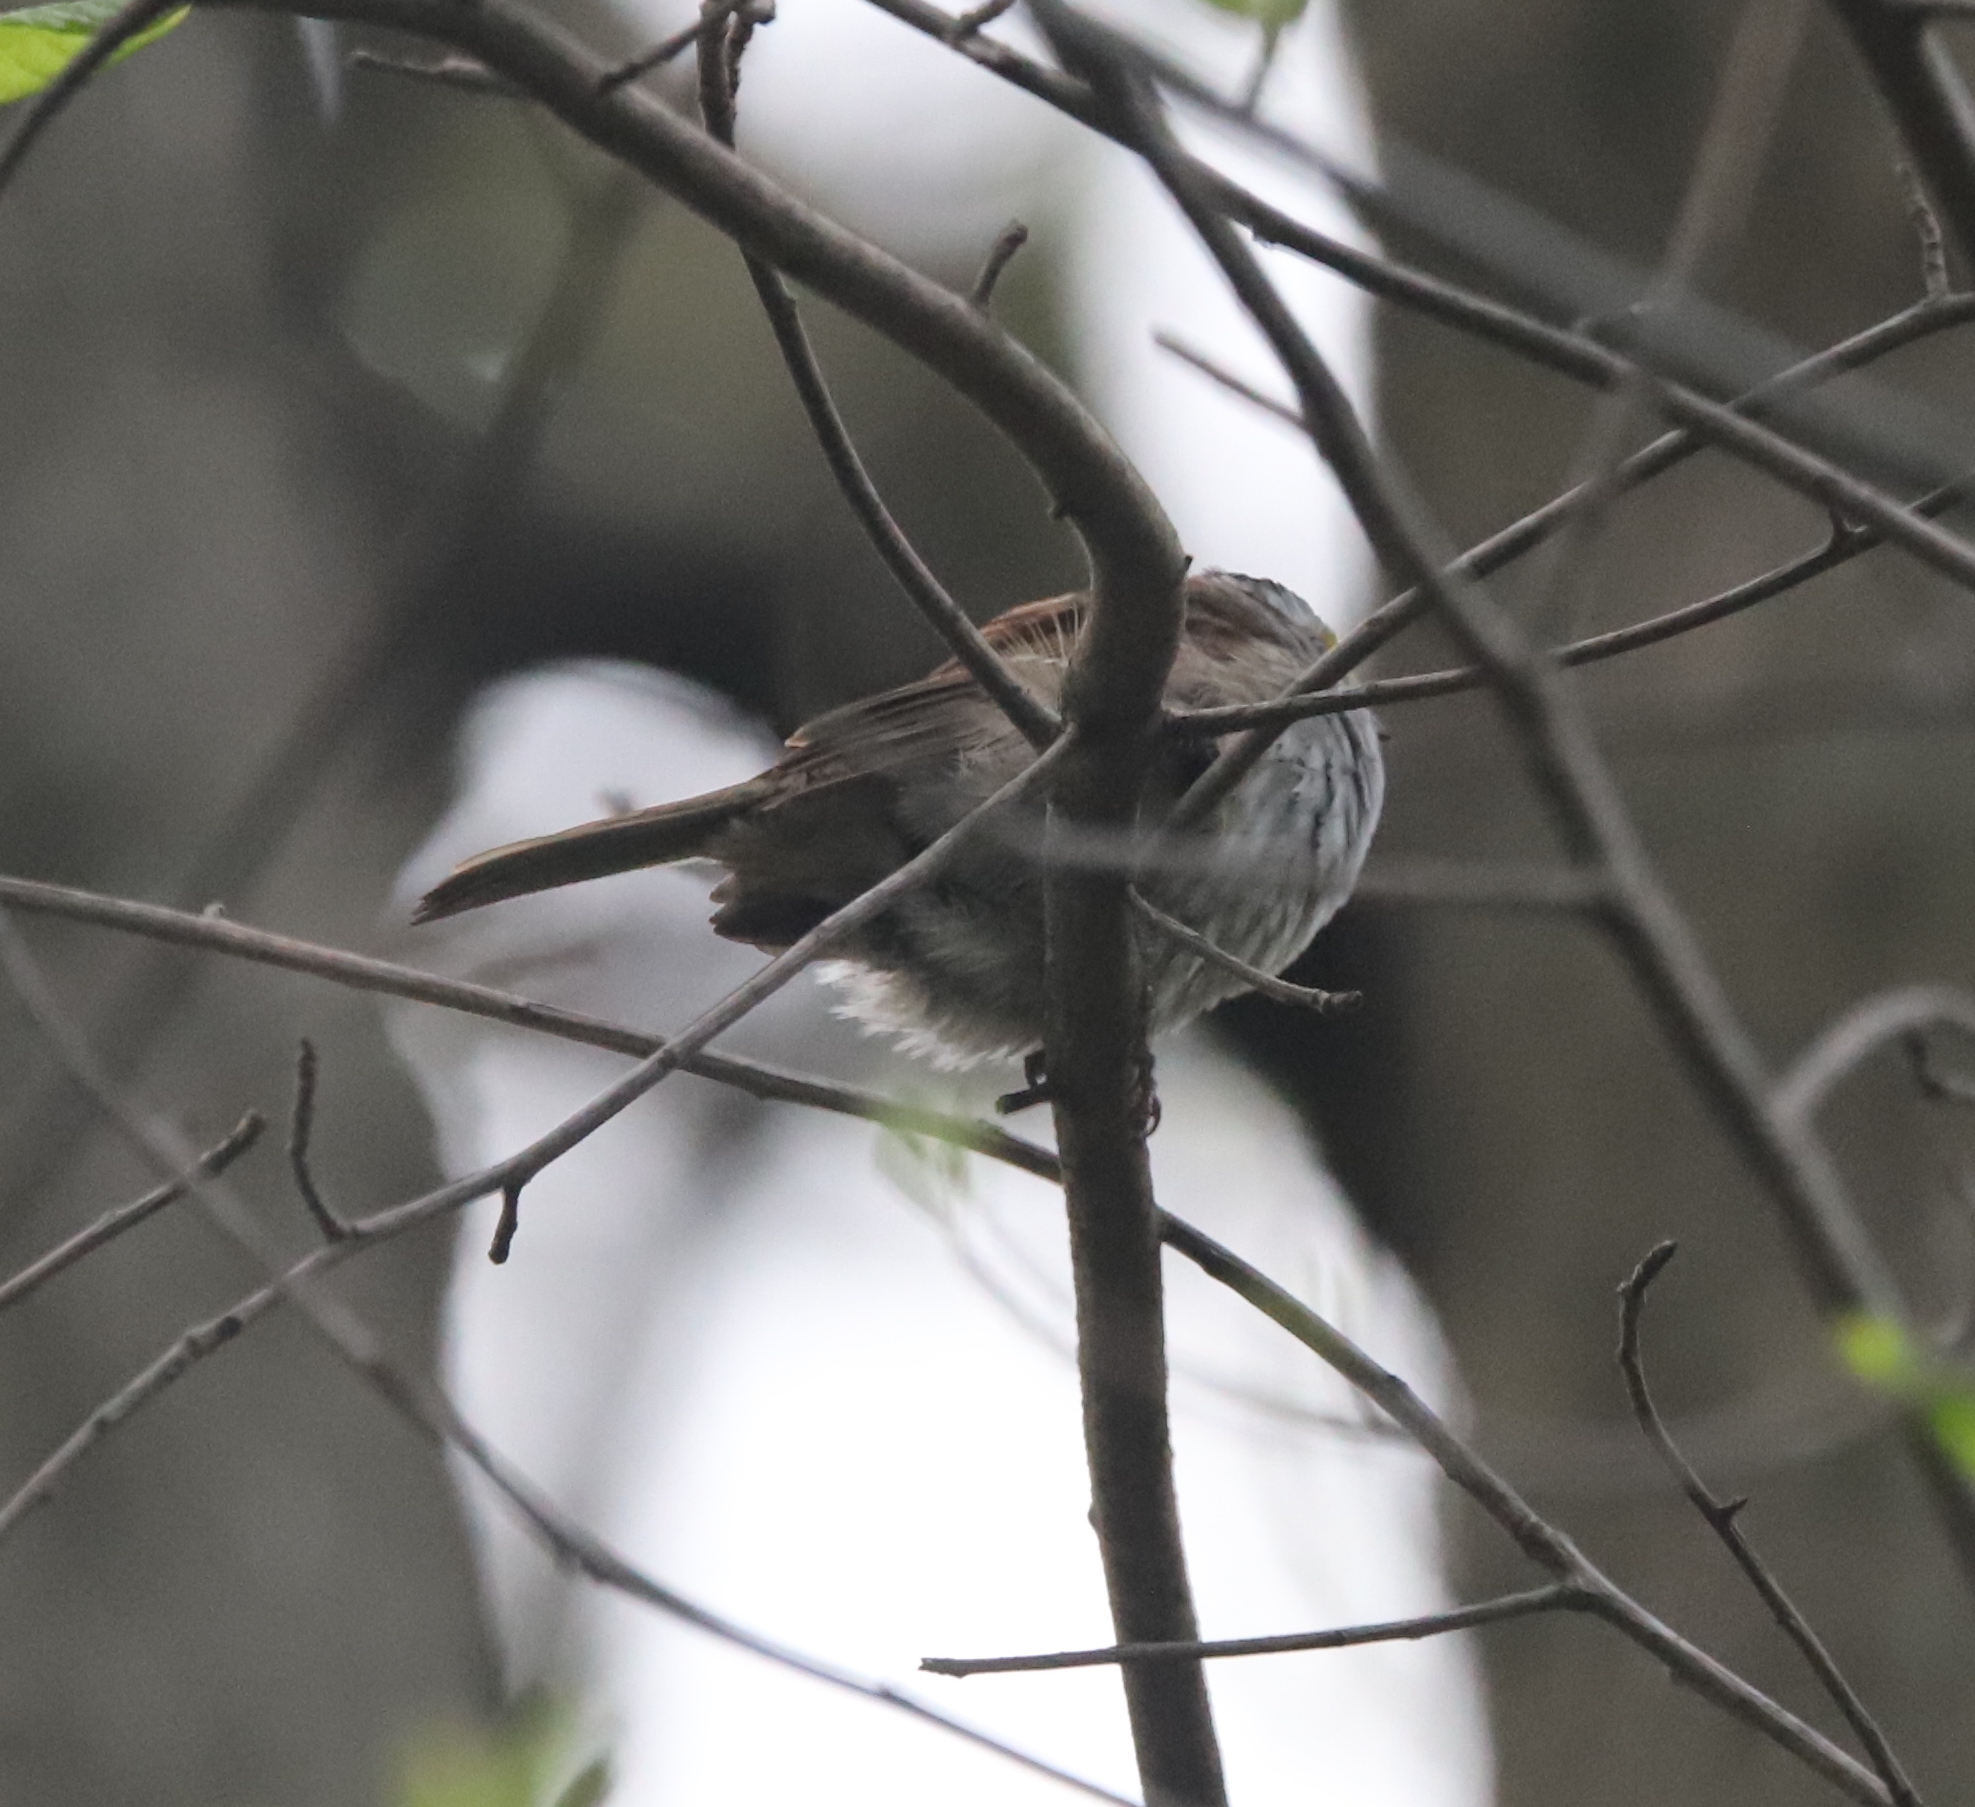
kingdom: Animalia
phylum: Chordata
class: Aves
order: Passeriformes
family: Passerellidae
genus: Zonotrichia
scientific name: Zonotrichia albicollis
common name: White-throated sparrow
